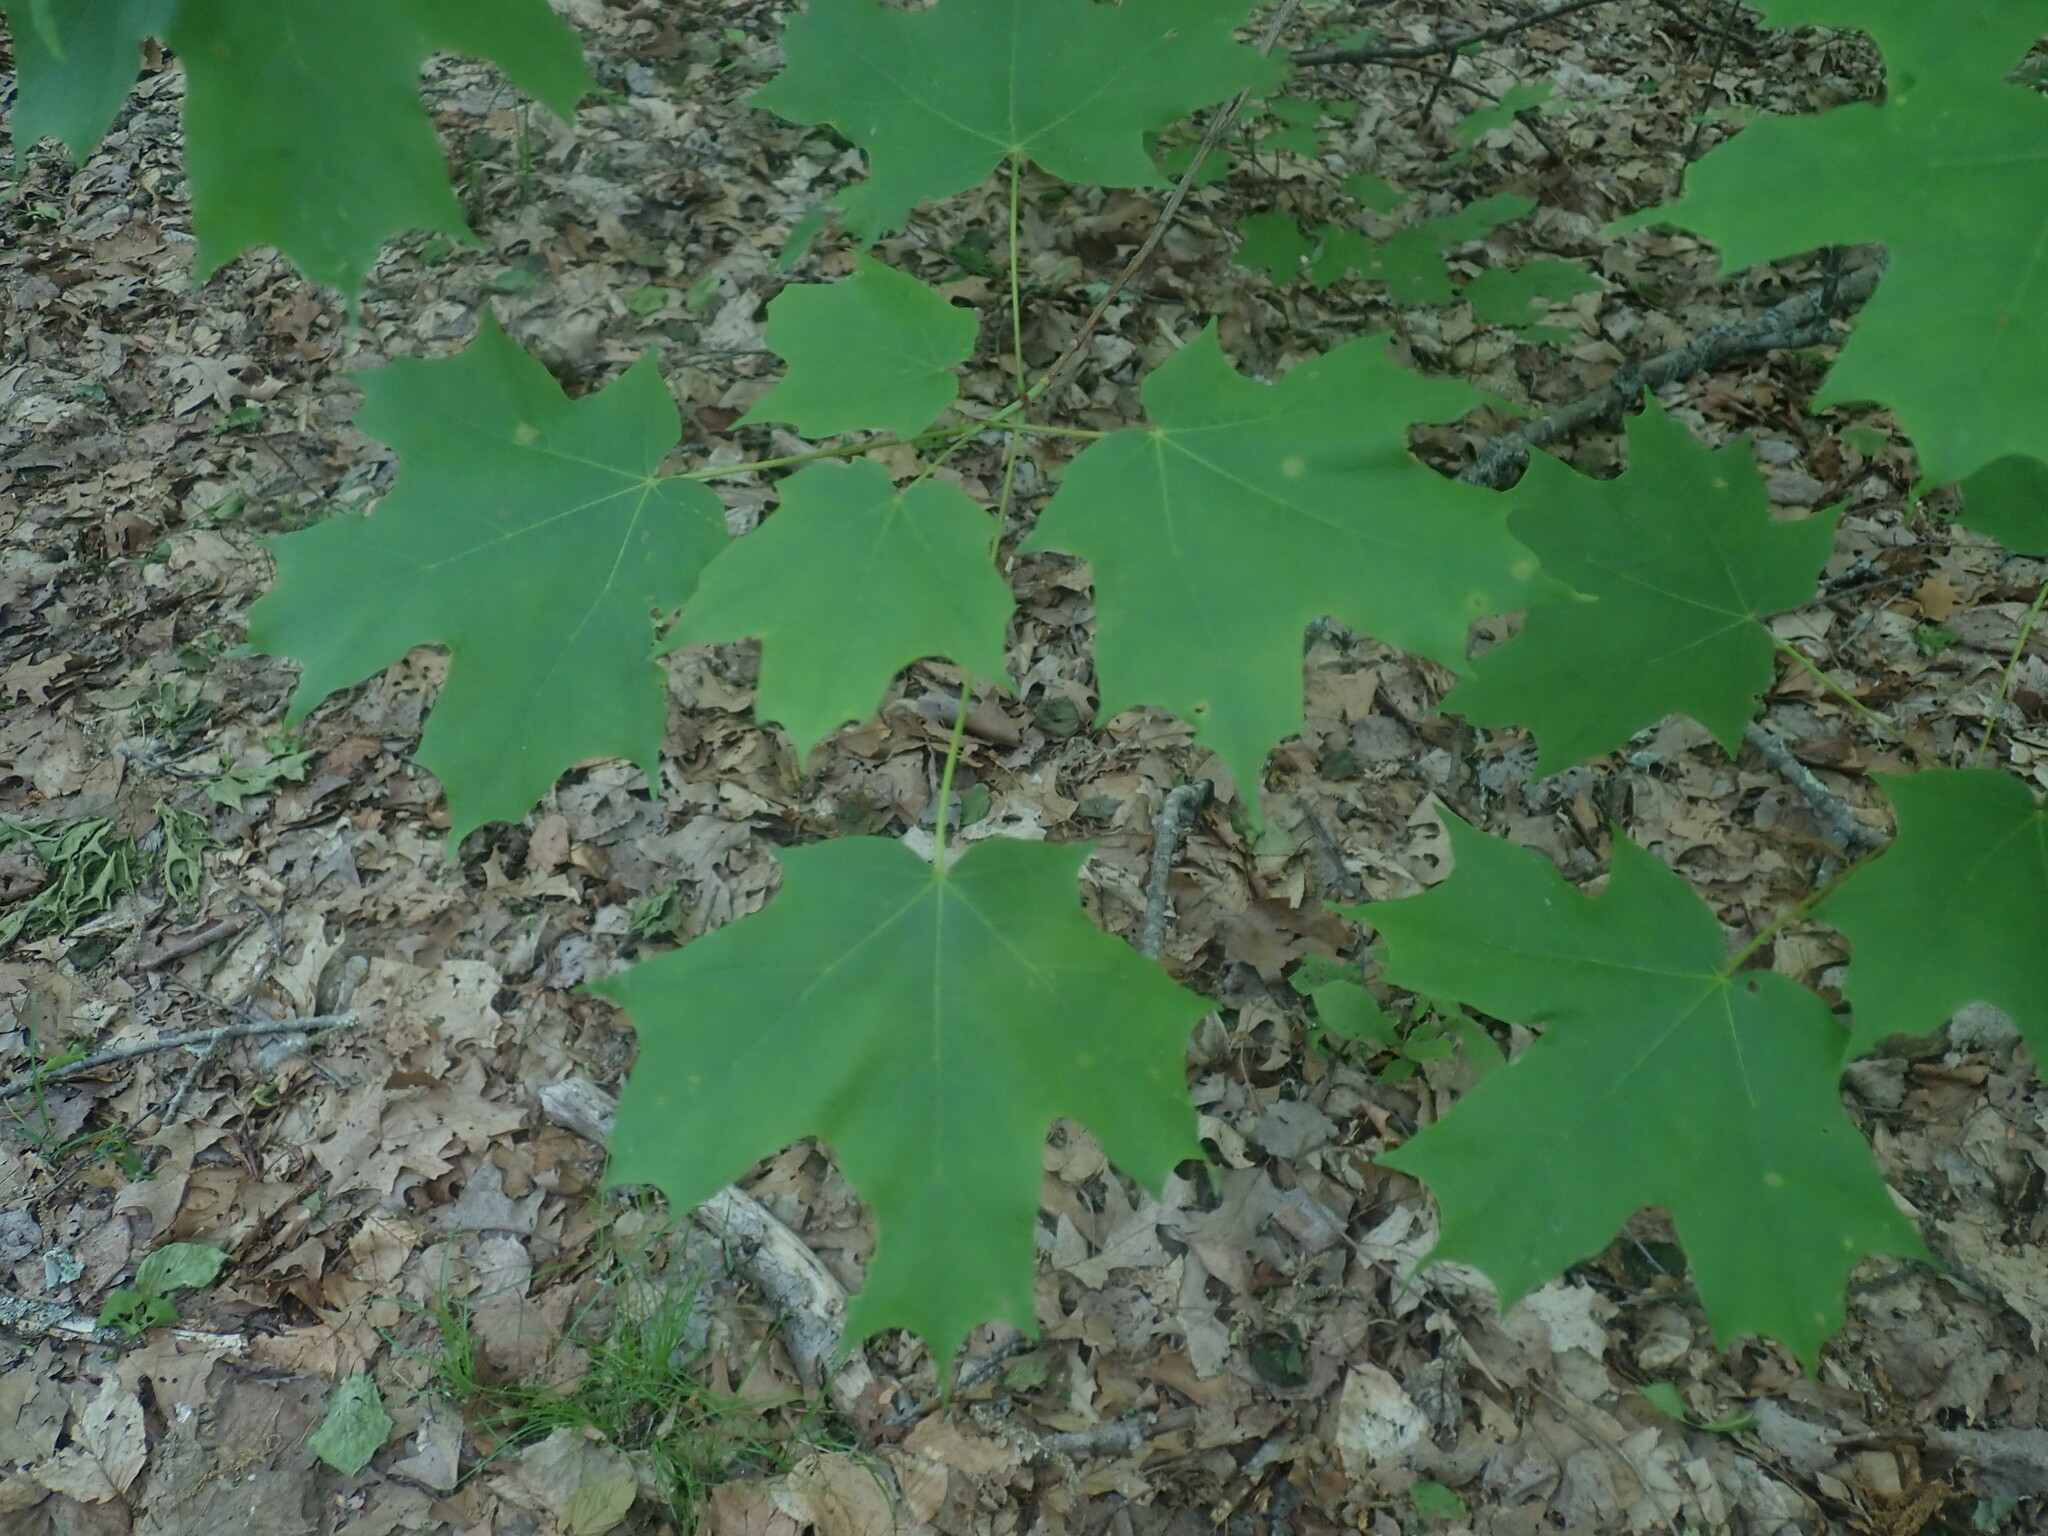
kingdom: Plantae
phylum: Tracheophyta
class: Magnoliopsida
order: Sapindales
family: Sapindaceae
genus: Acer
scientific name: Acer saccharum
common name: Sugar maple
